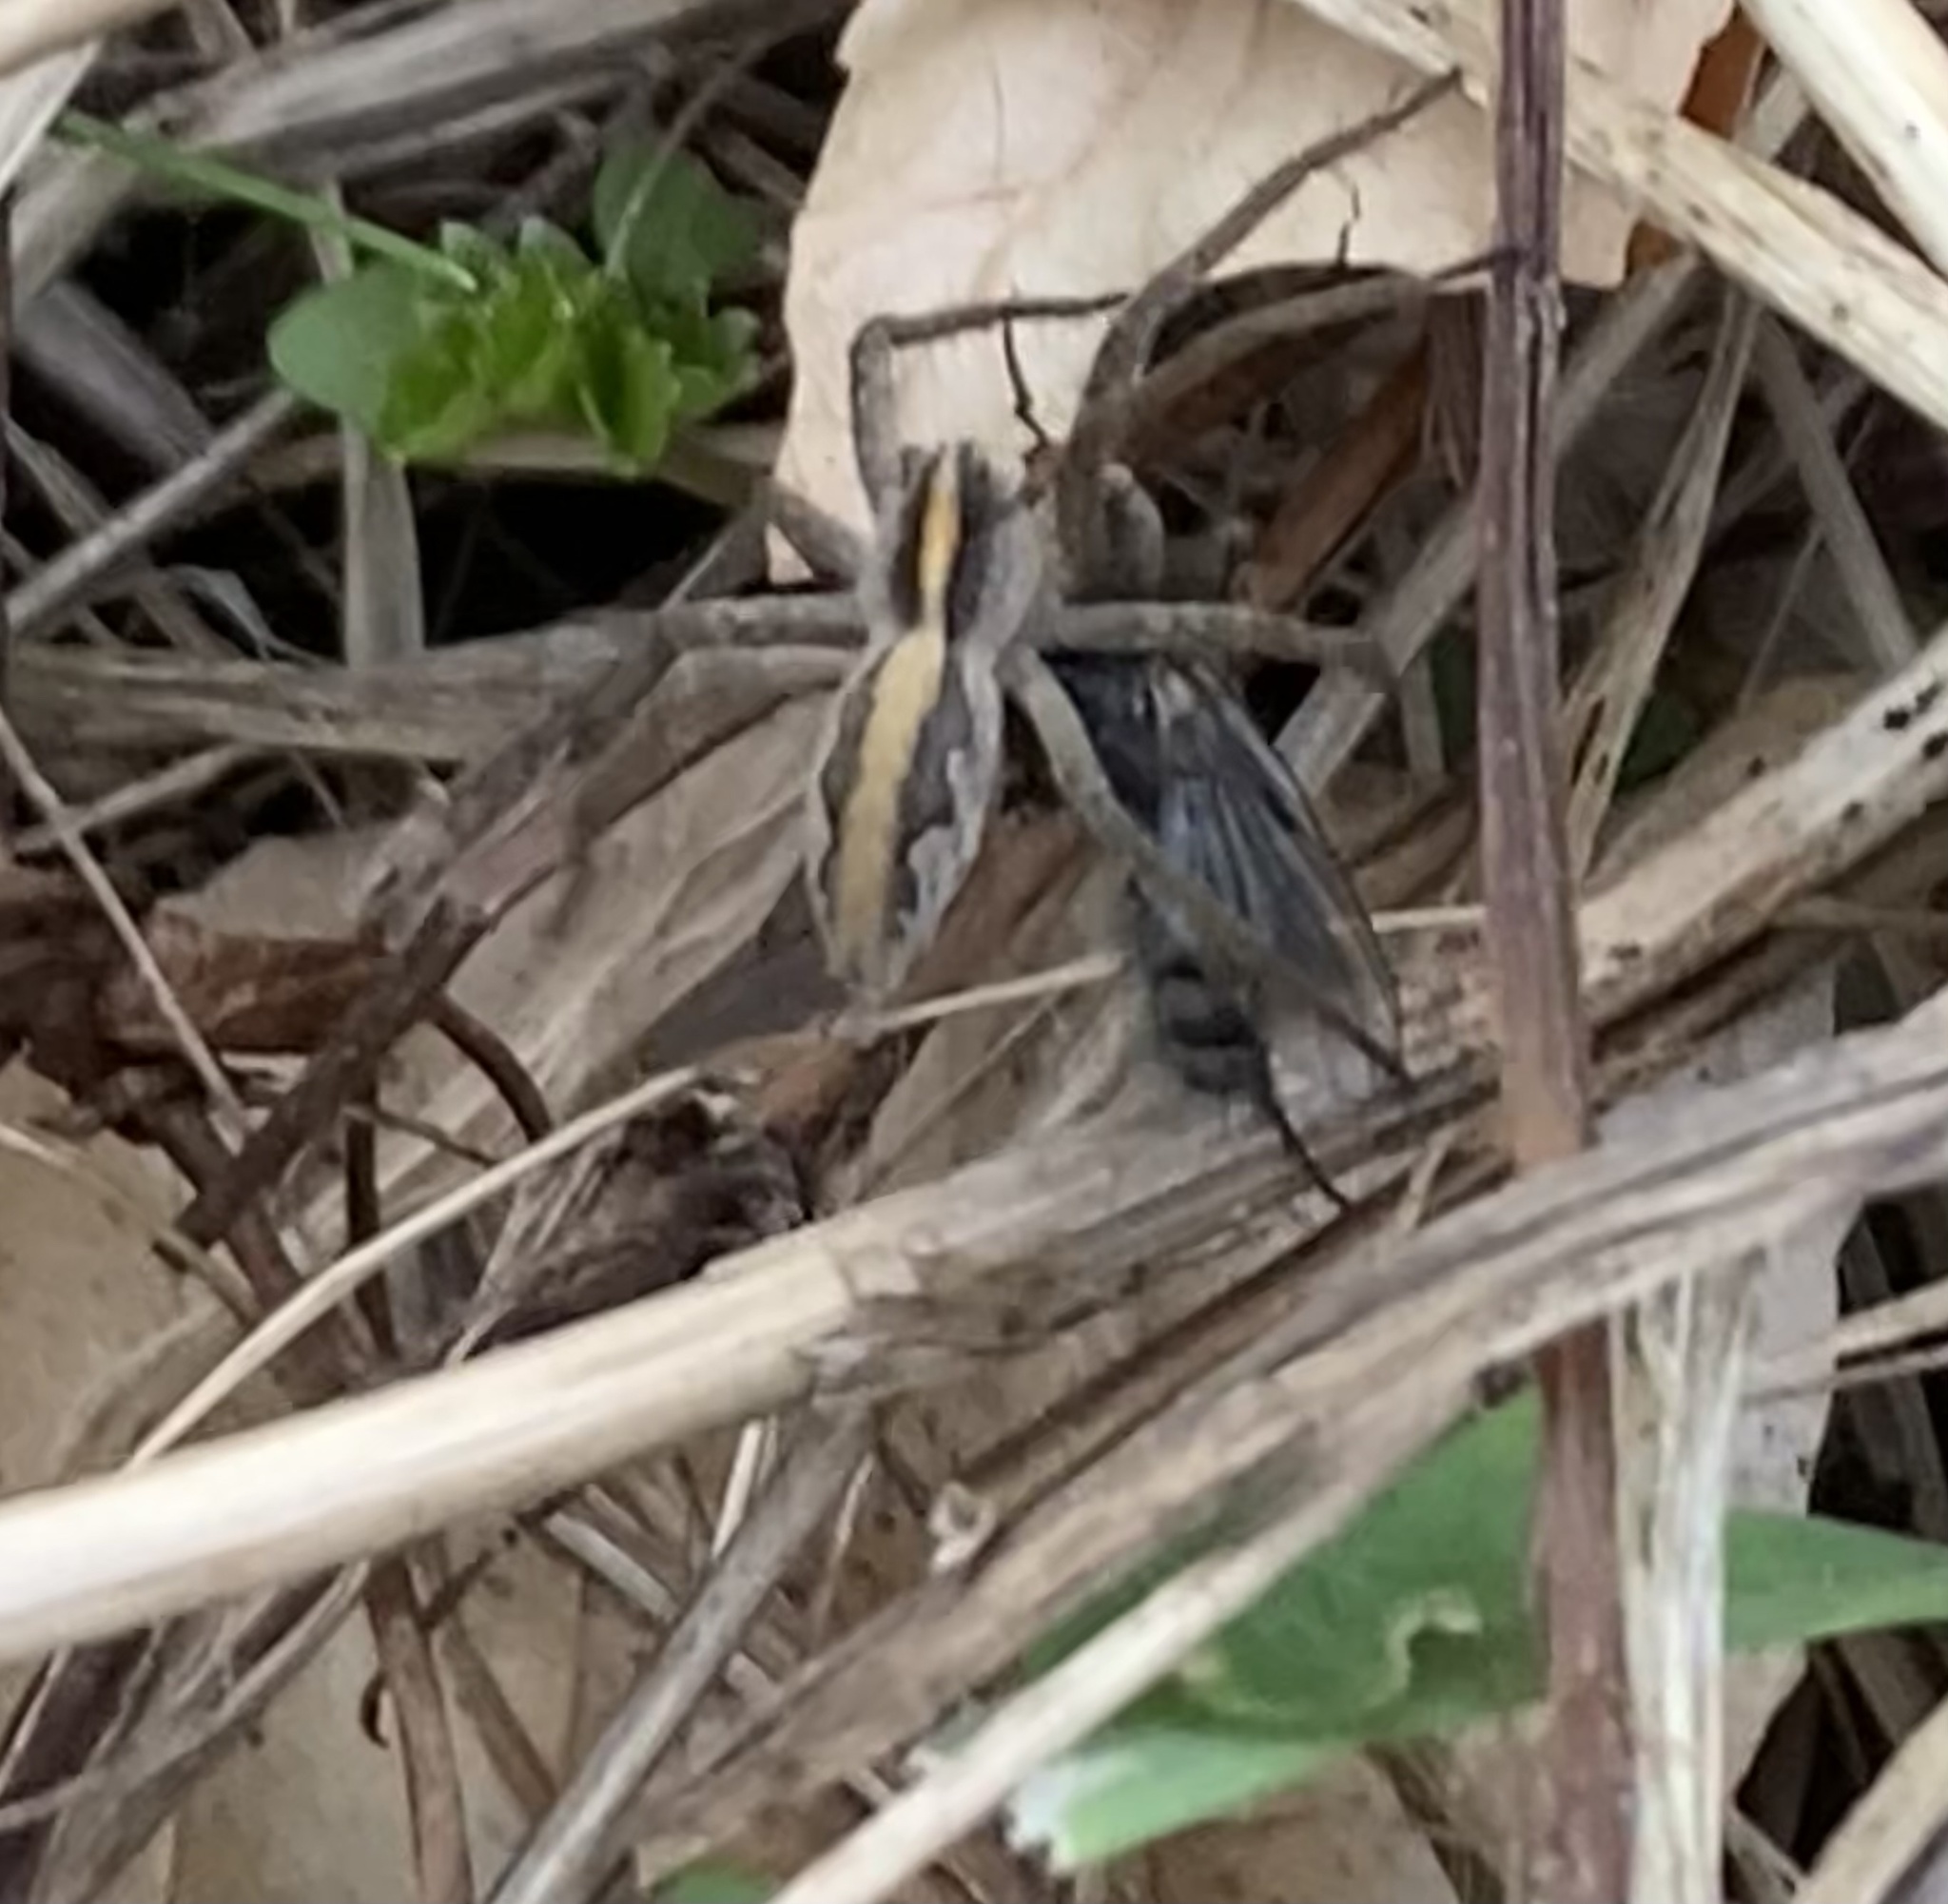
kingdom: Animalia
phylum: Arthropoda
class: Arachnida
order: Araneae
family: Pisauridae
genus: Pisaura
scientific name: Pisaura mirabilis
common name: Tent spider
